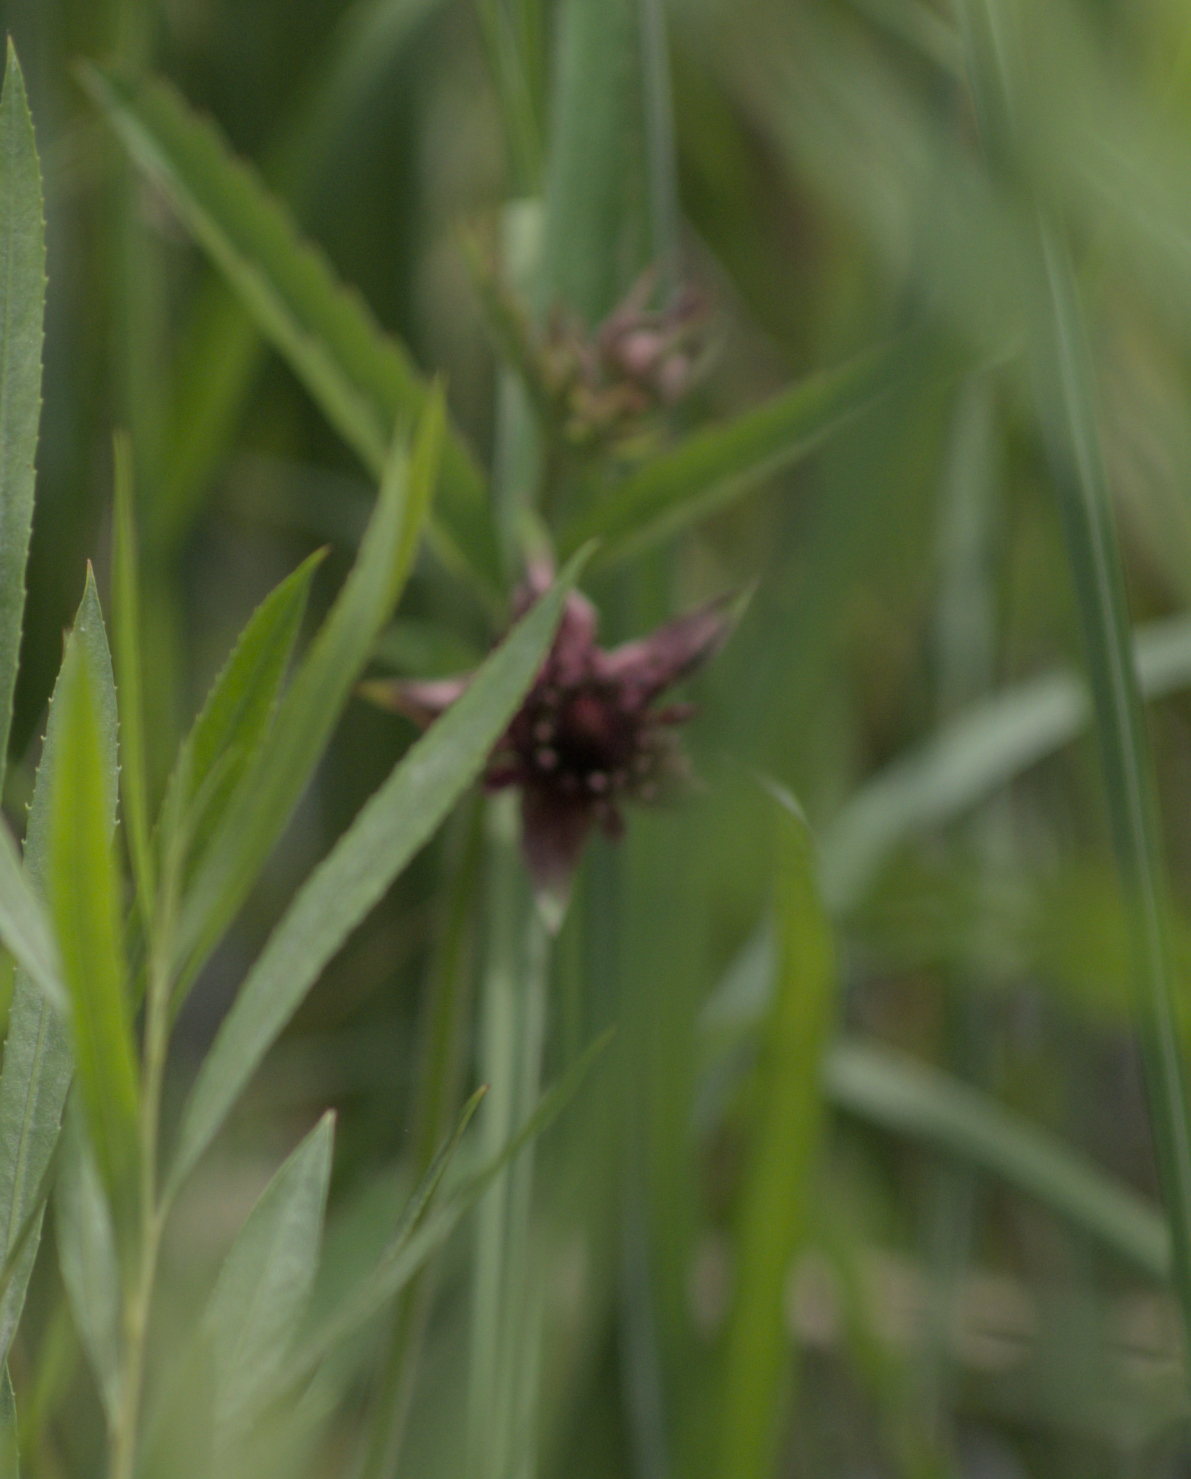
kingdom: Plantae
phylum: Tracheophyta
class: Magnoliopsida
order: Rosales
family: Rosaceae
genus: Comarum
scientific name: Comarum palustre
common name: Marsh cinquefoil
